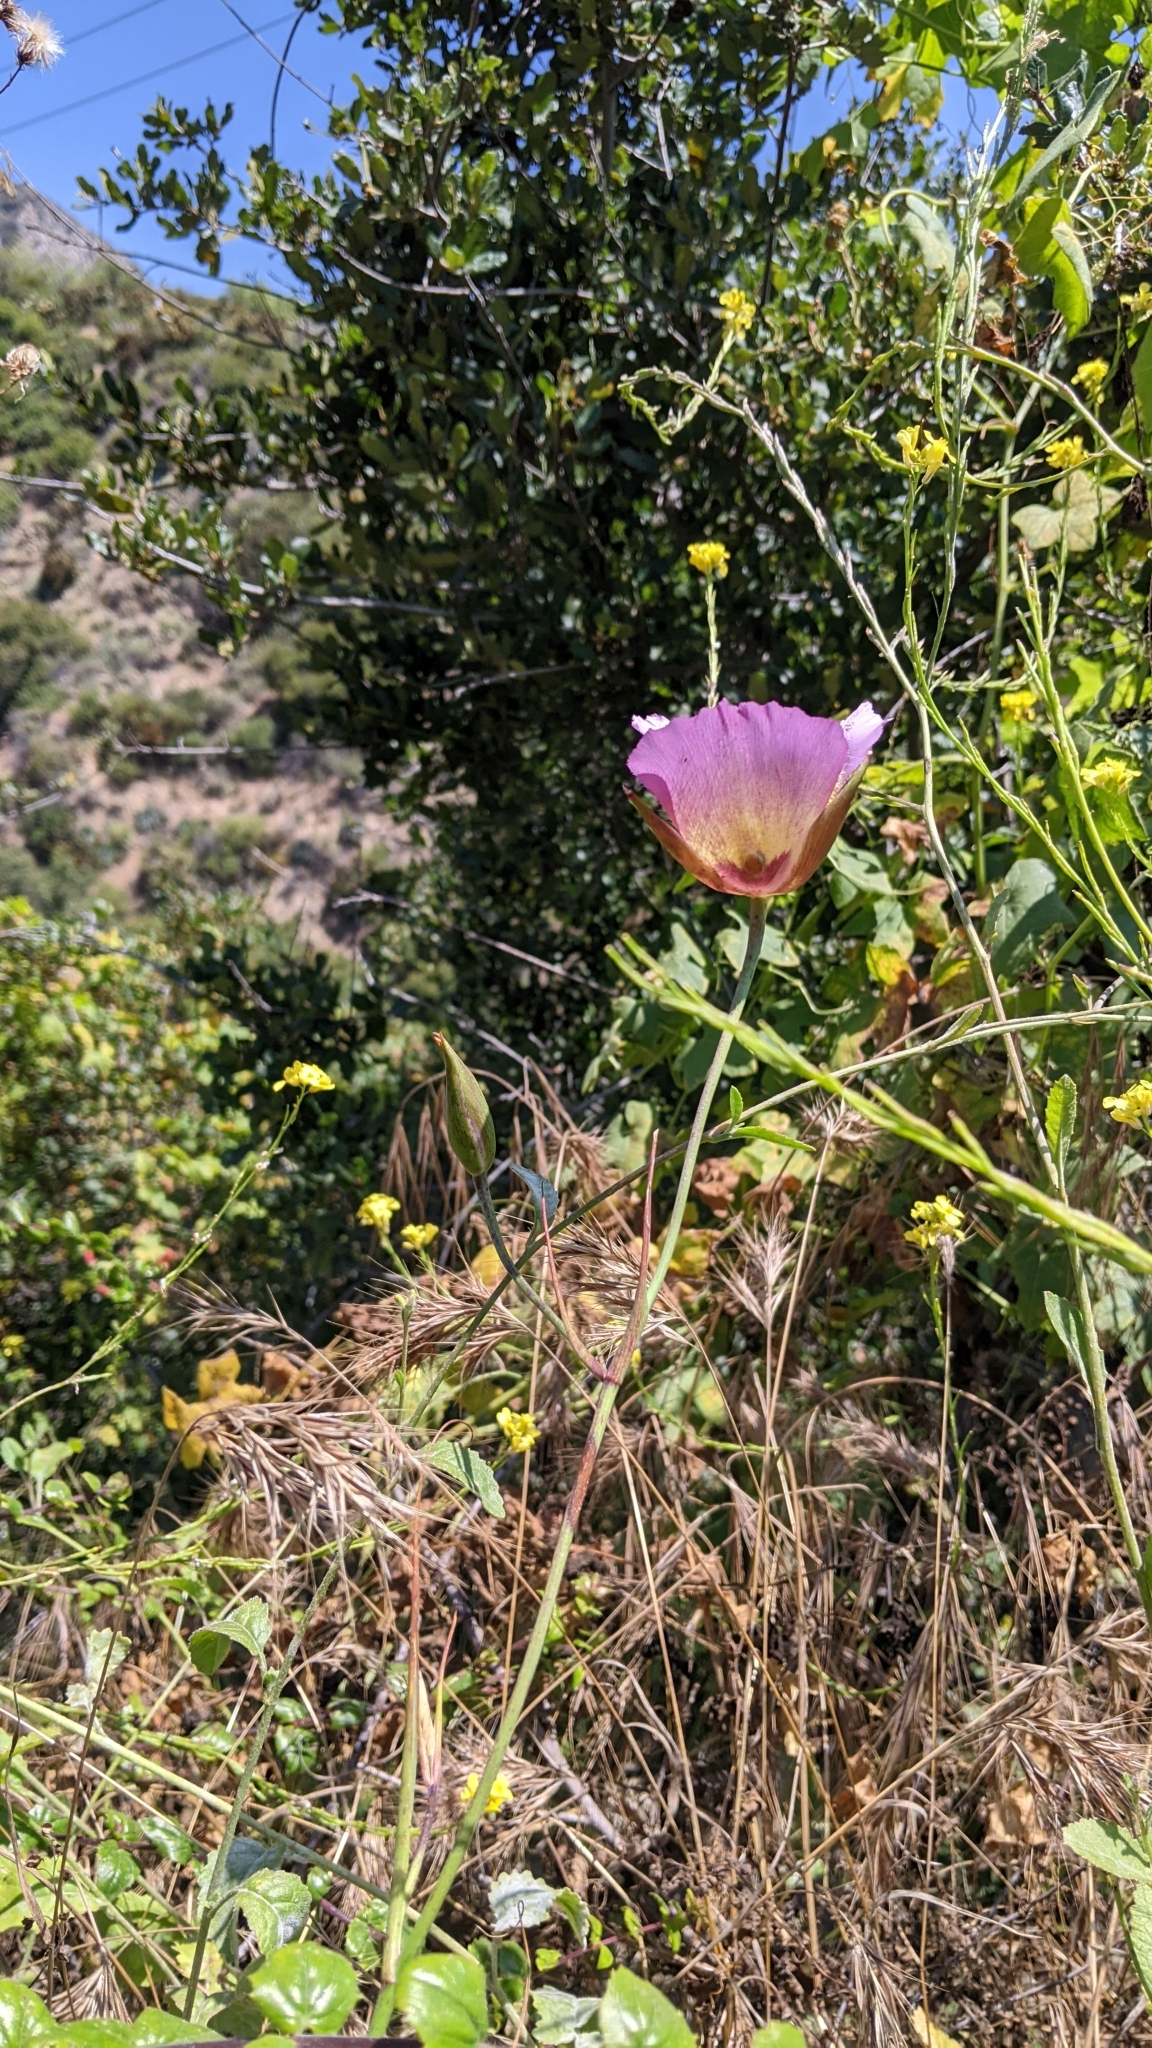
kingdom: Plantae
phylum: Tracheophyta
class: Liliopsida
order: Liliales
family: Liliaceae
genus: Calochortus
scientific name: Calochortus plummerae
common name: Plummer's mariposa-lily
